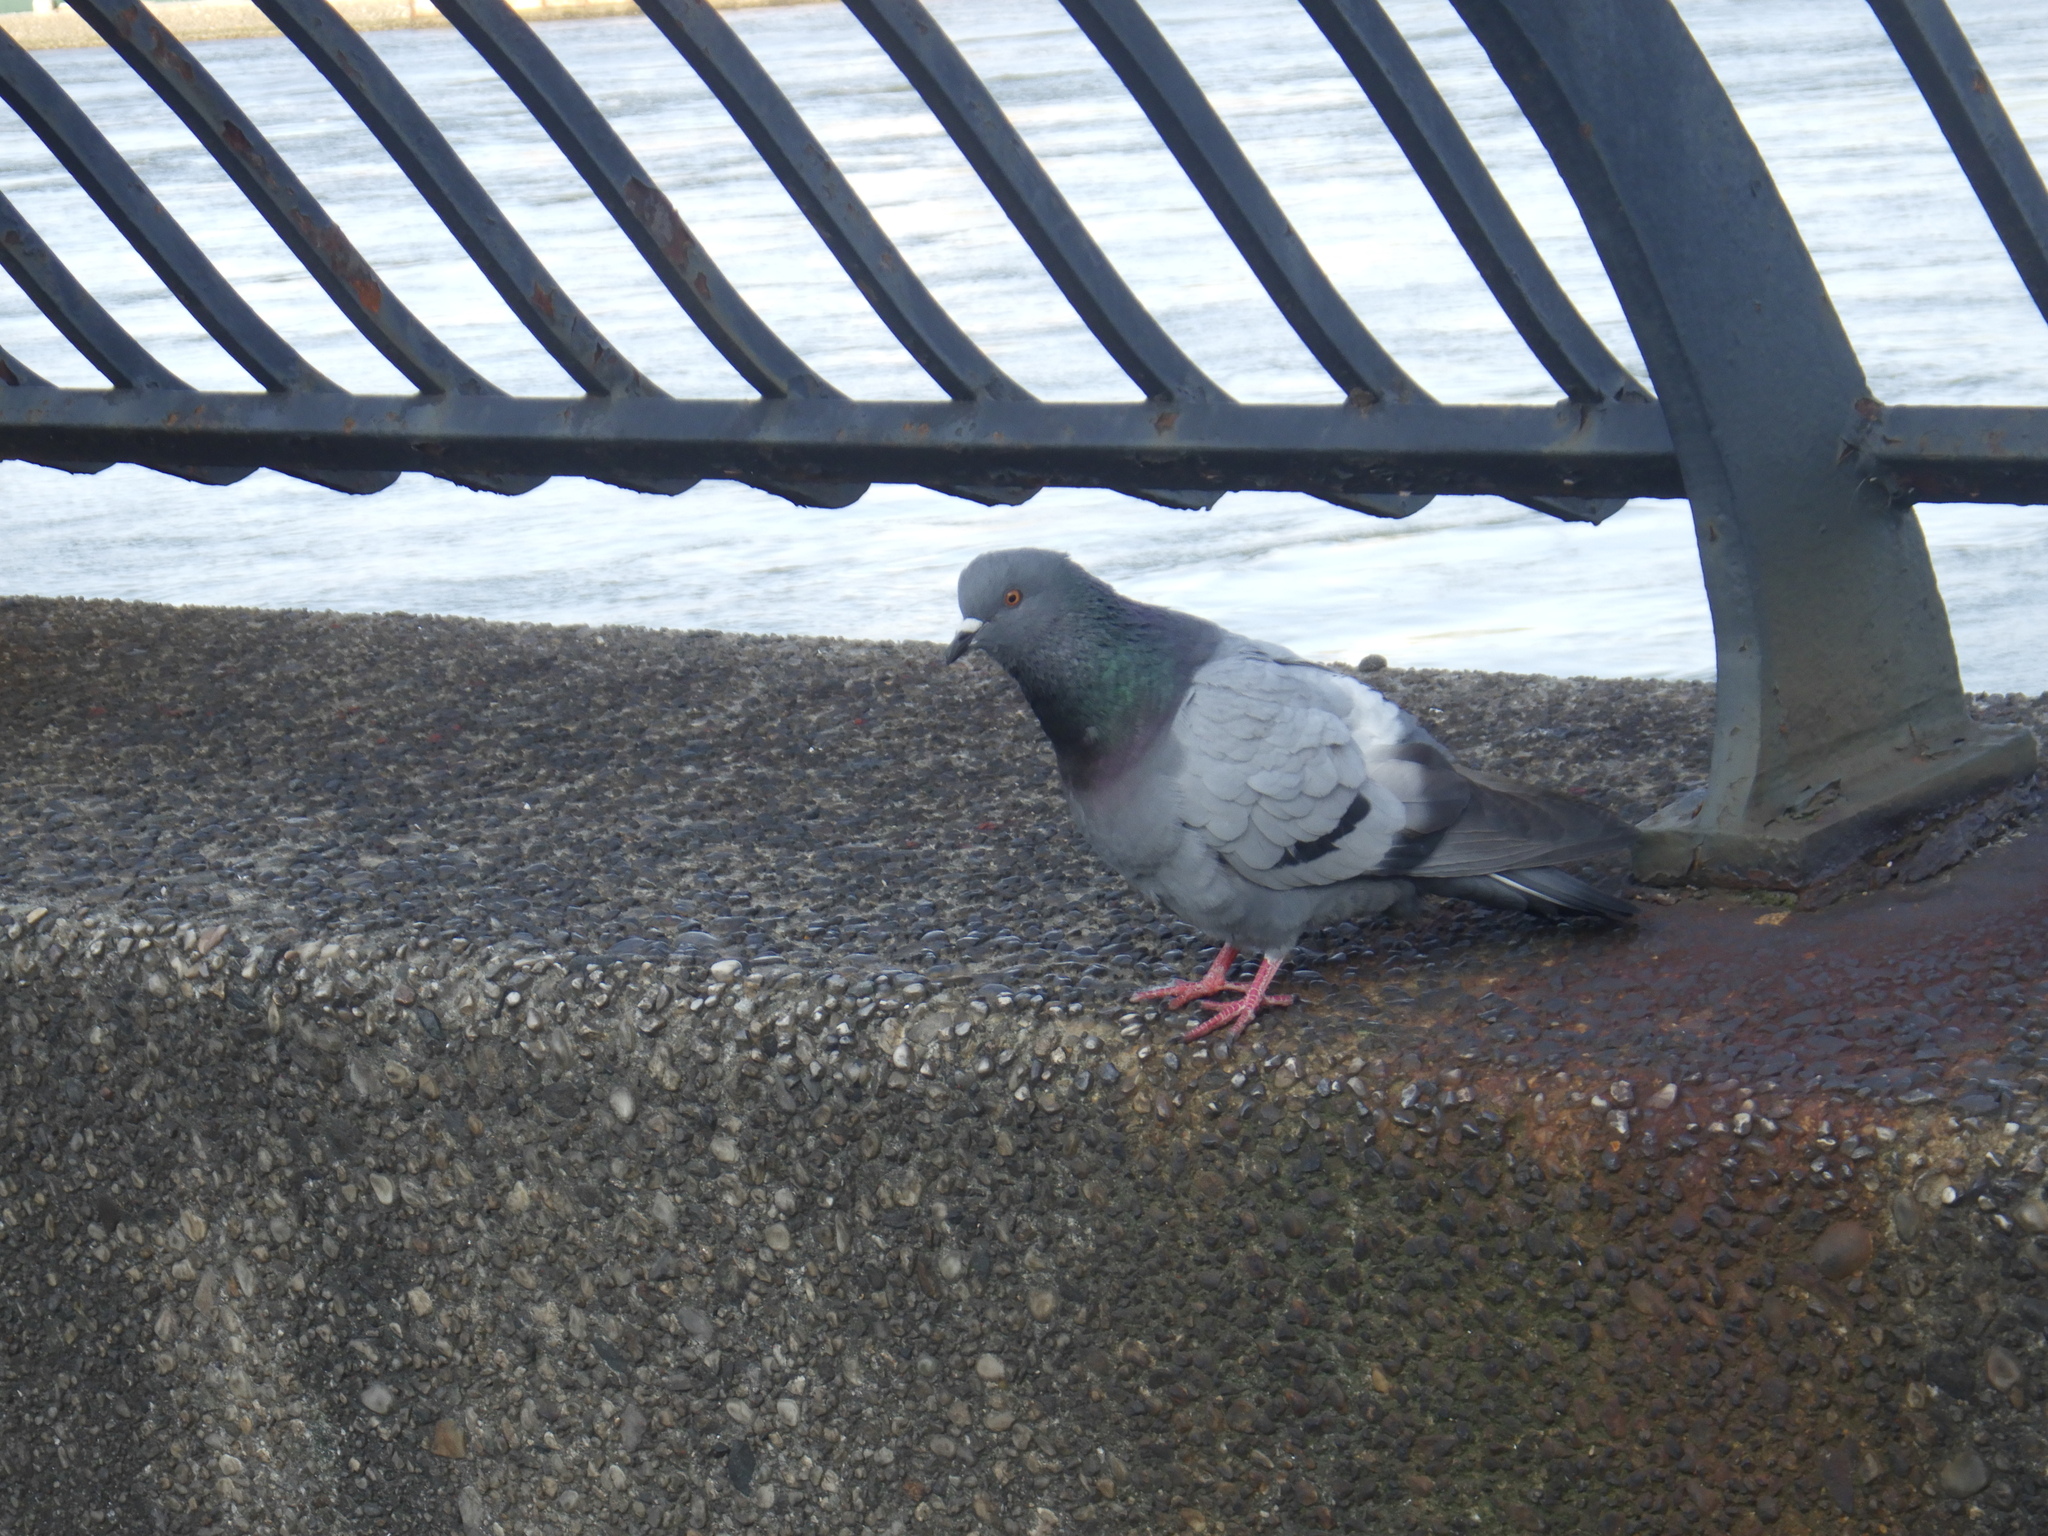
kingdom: Animalia
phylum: Chordata
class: Aves
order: Columbiformes
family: Columbidae
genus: Columba
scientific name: Columba livia
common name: Rock pigeon
